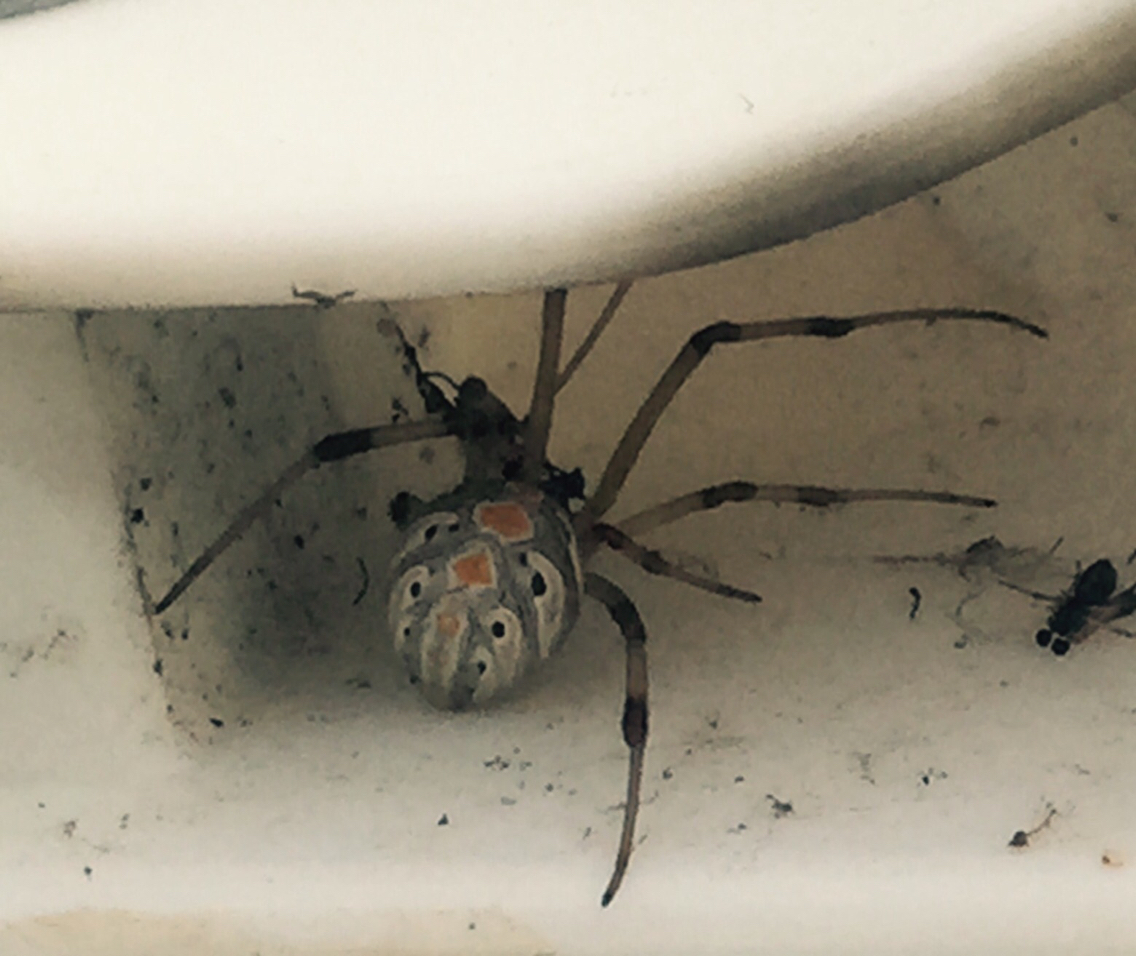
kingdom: Animalia
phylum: Arthropoda
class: Arachnida
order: Araneae
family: Theridiidae
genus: Latrodectus
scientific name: Latrodectus geometricus
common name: Brown widow spider
